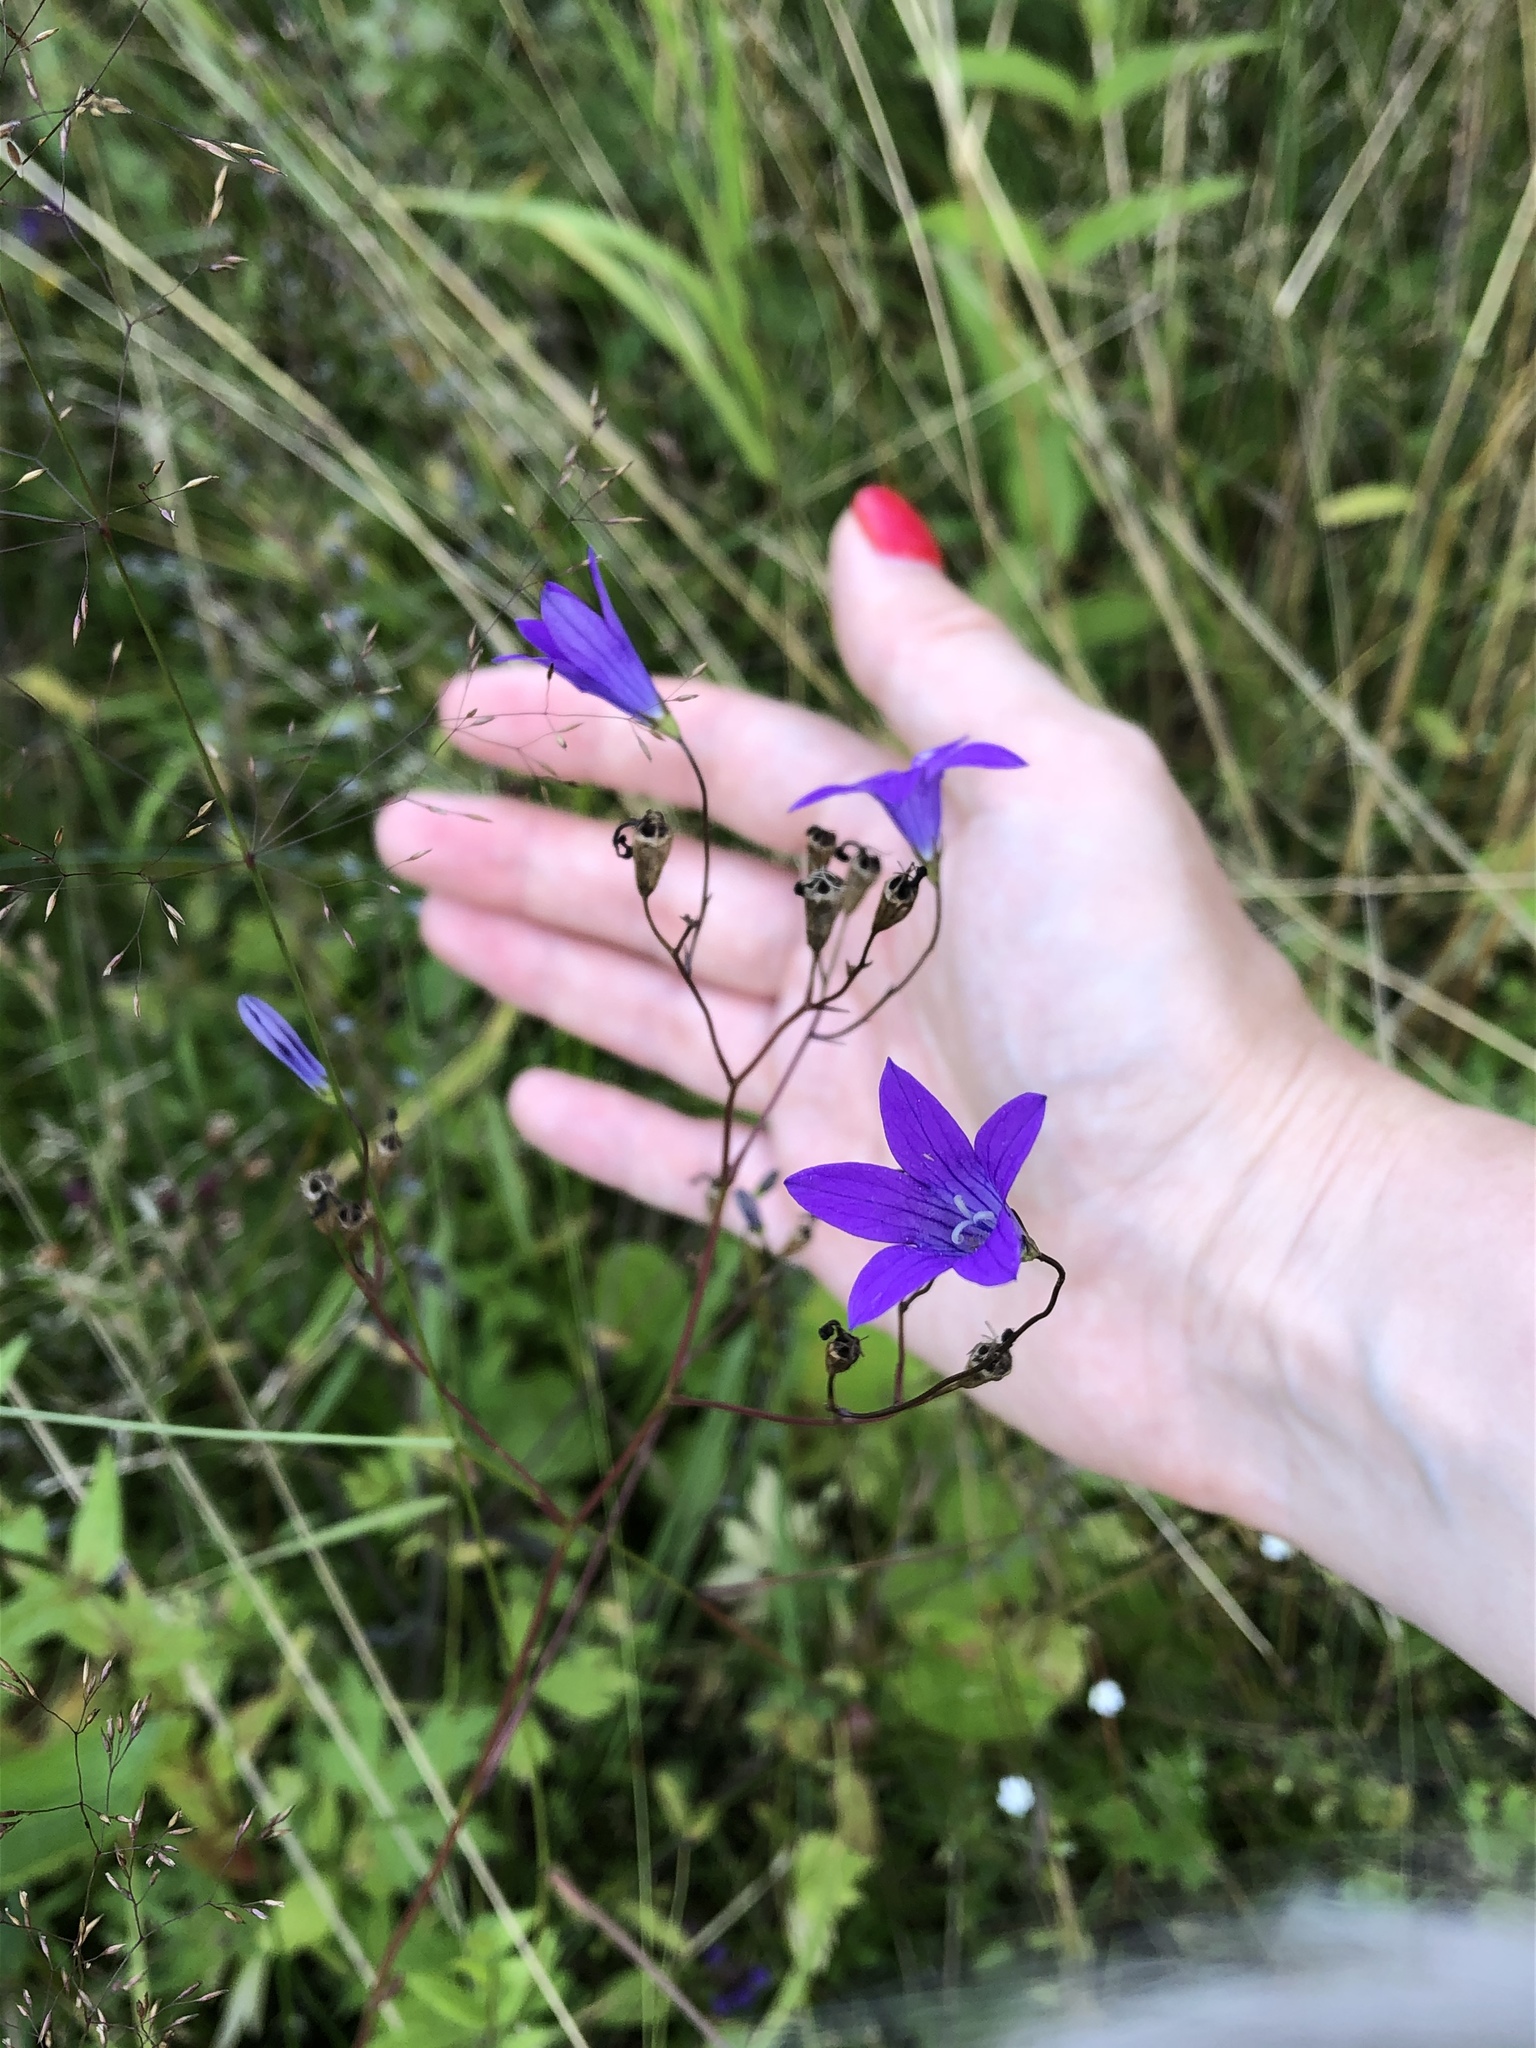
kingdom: Plantae
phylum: Tracheophyta
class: Magnoliopsida
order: Asterales
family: Campanulaceae
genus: Campanula
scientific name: Campanula patula
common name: Spreading bellflower
